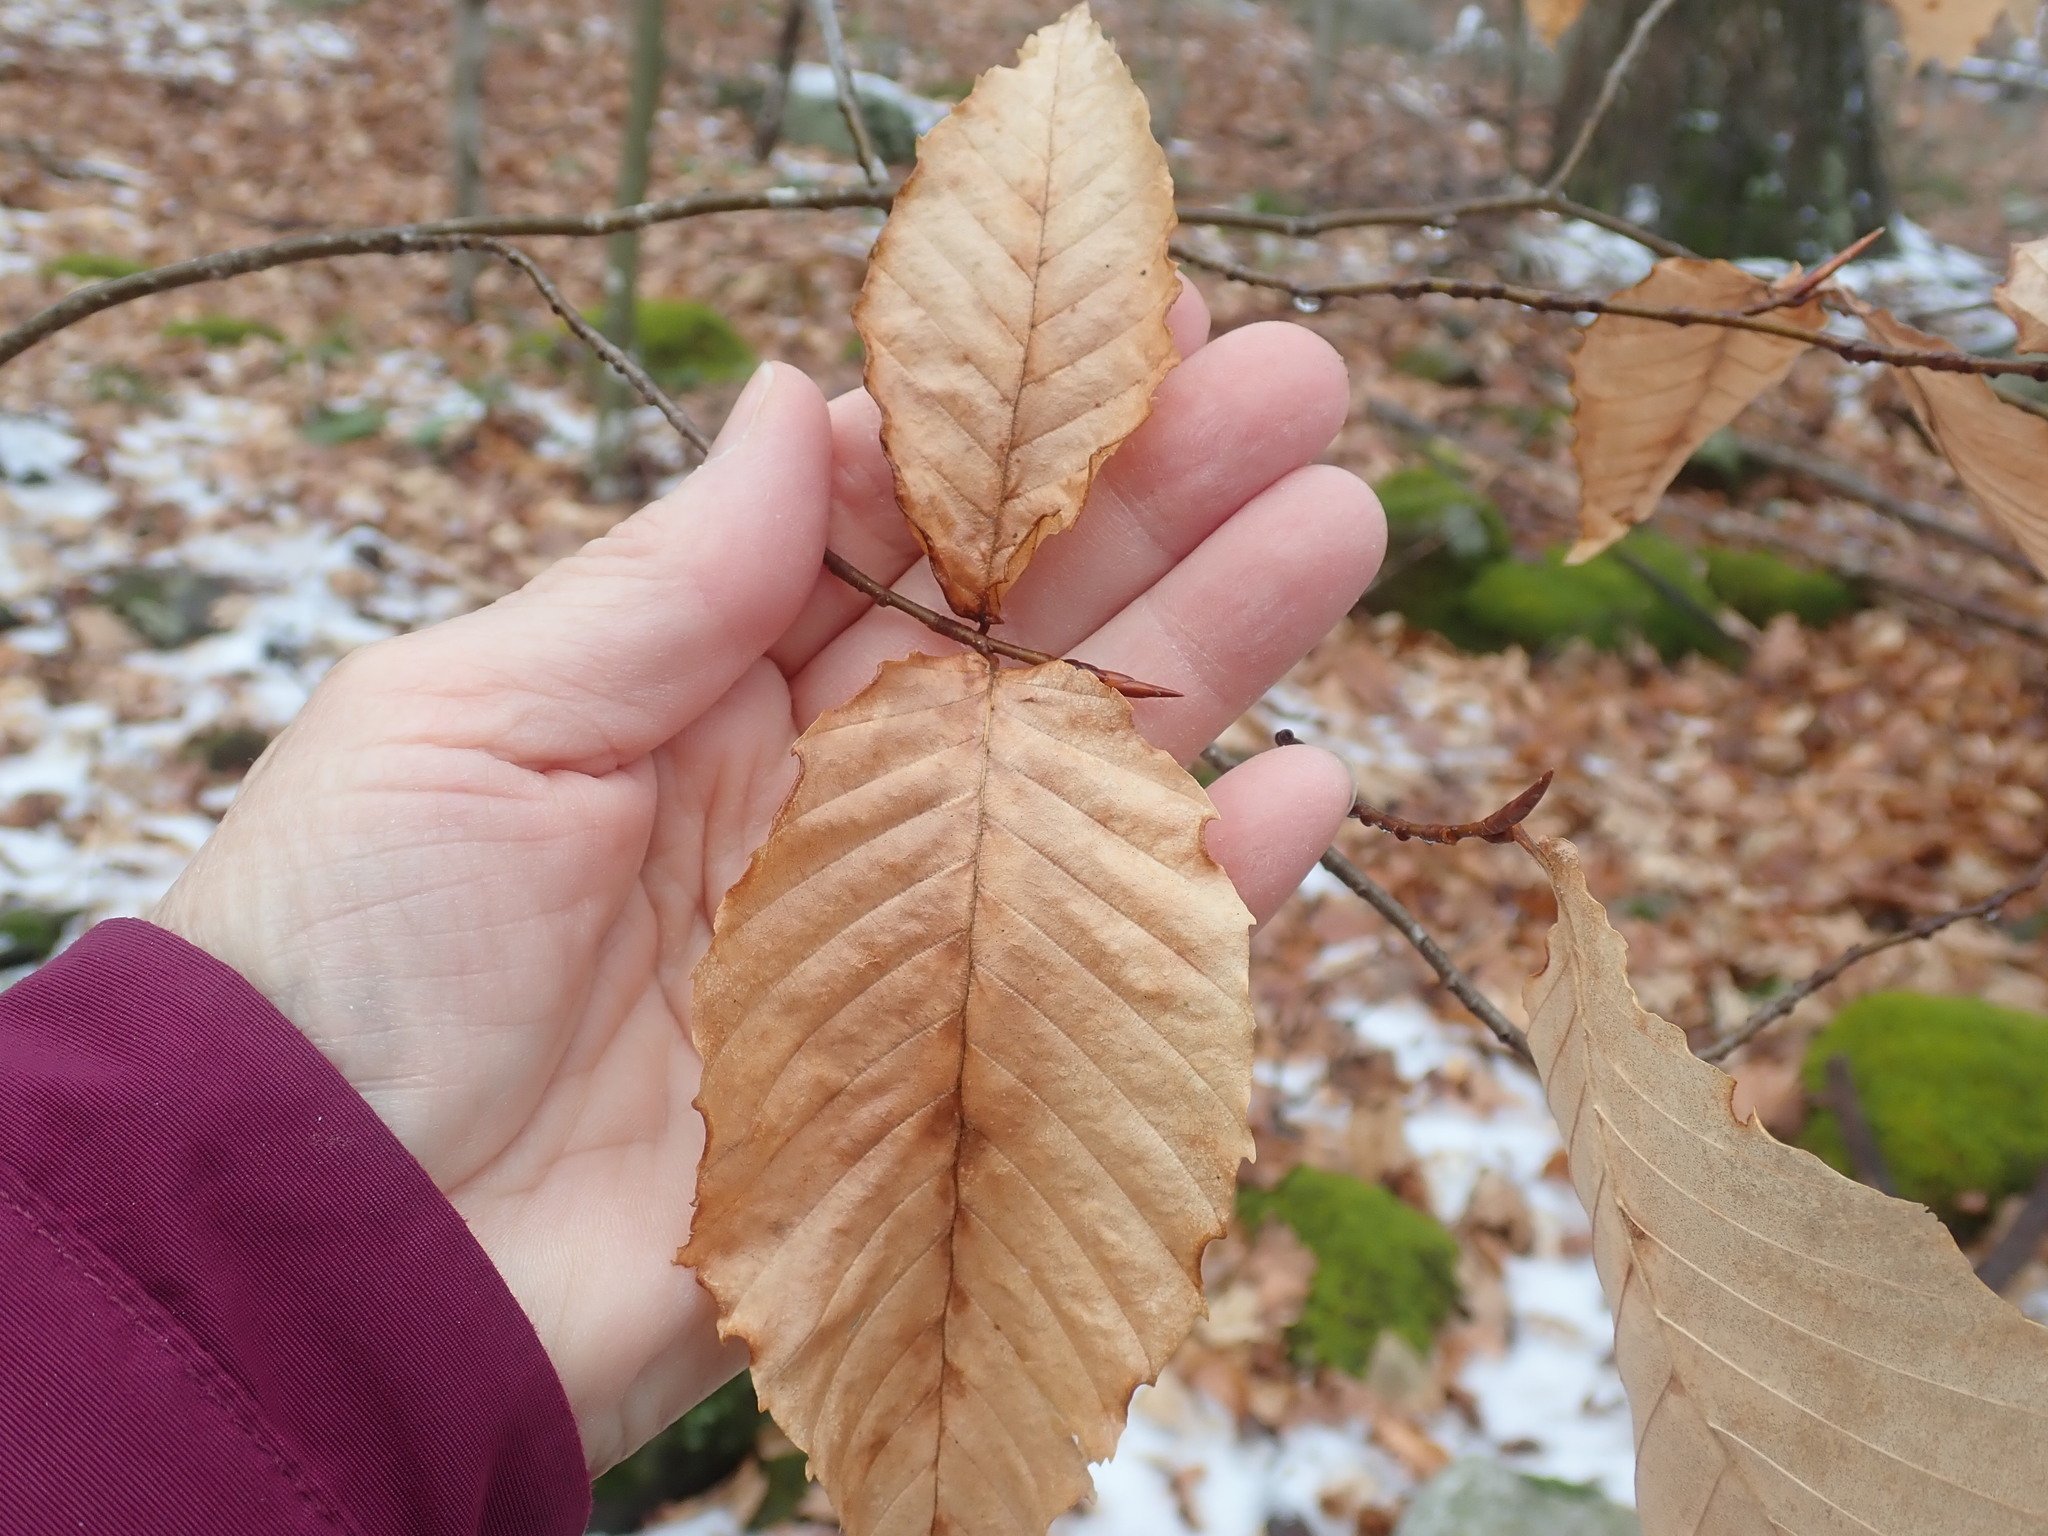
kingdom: Plantae
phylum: Tracheophyta
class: Magnoliopsida
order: Fagales
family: Fagaceae
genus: Fagus
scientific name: Fagus grandifolia
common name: American beech
